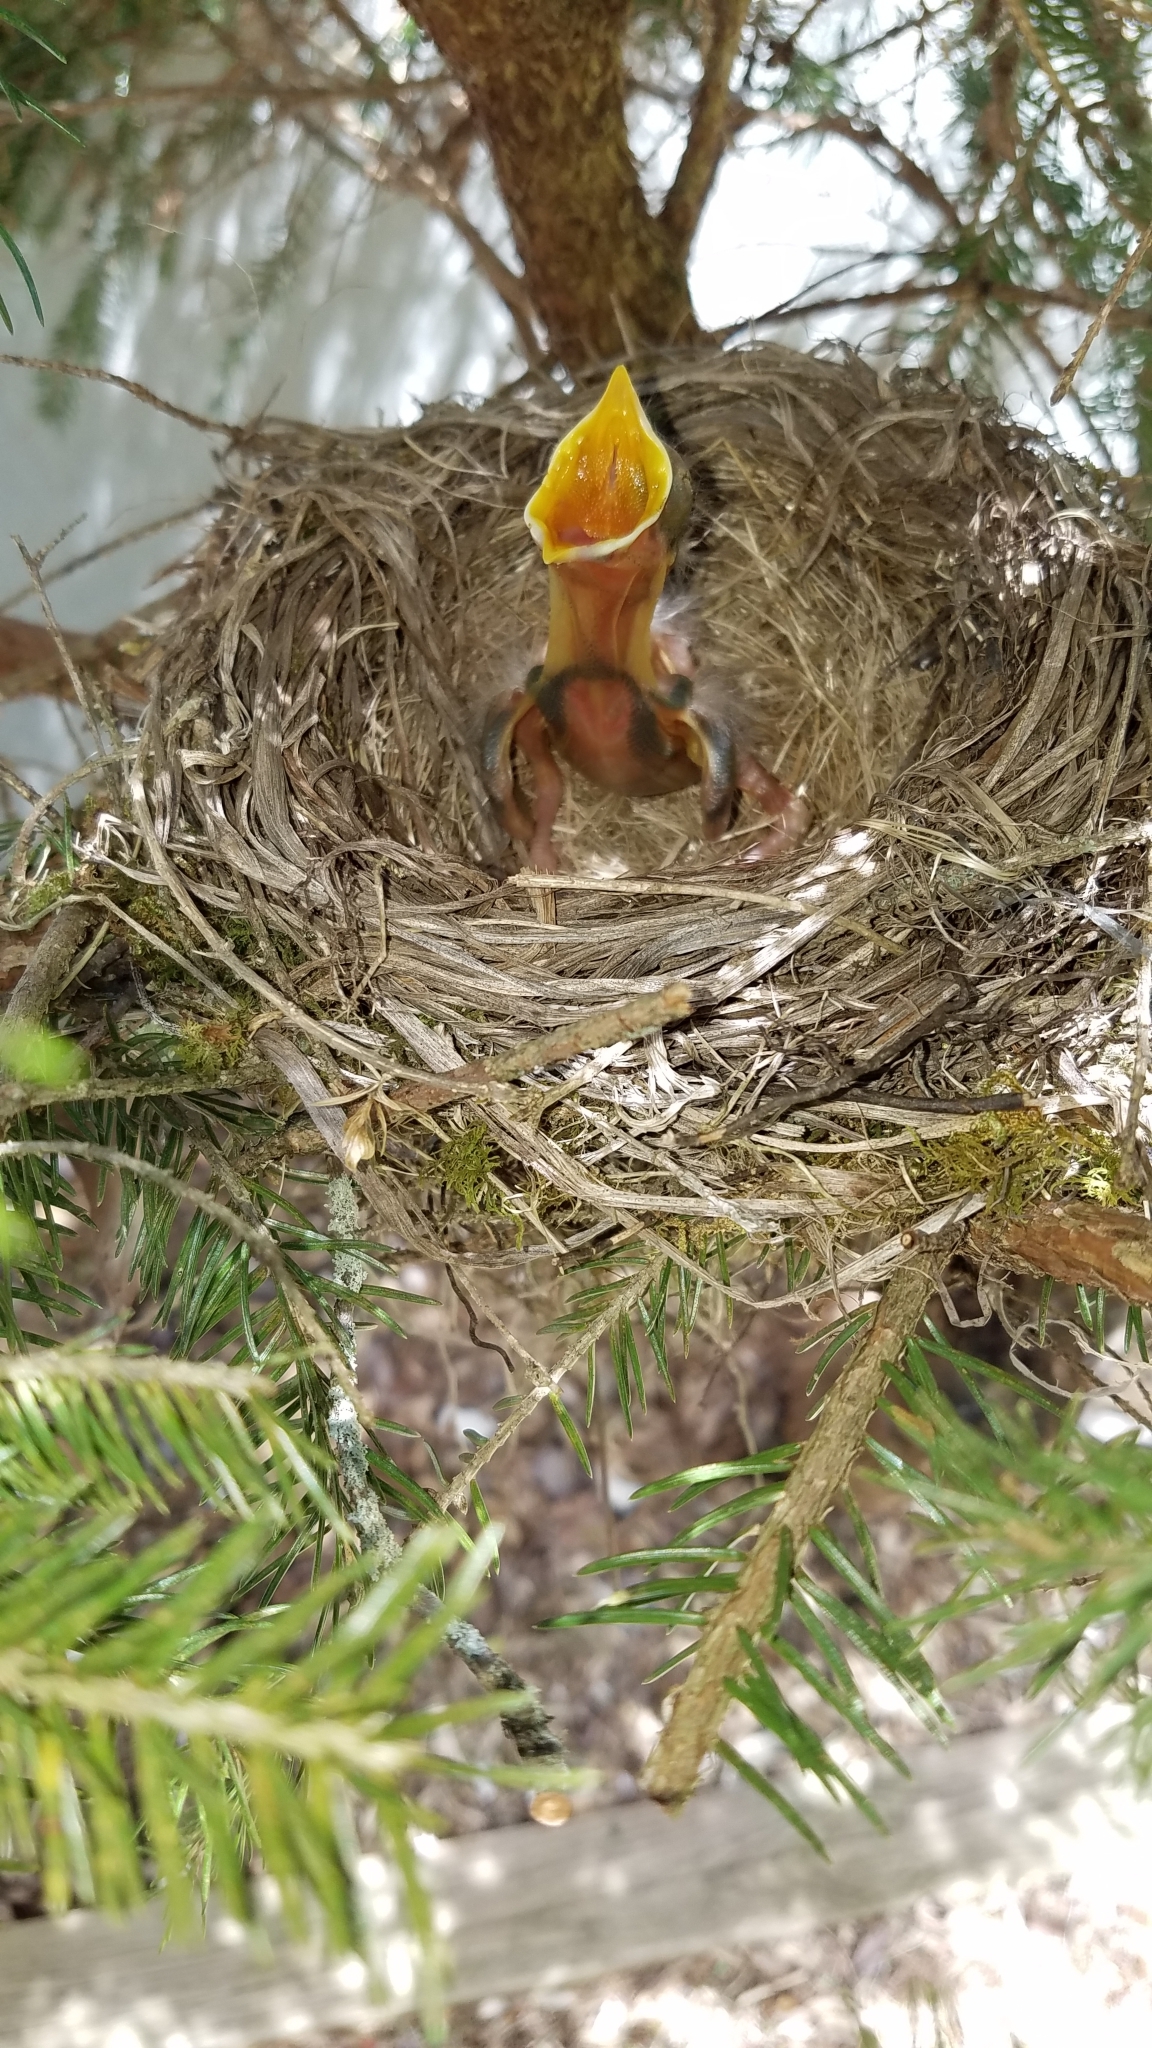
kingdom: Animalia
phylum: Chordata
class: Aves
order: Passeriformes
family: Turdidae
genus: Turdus
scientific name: Turdus migratorius
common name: American robin
